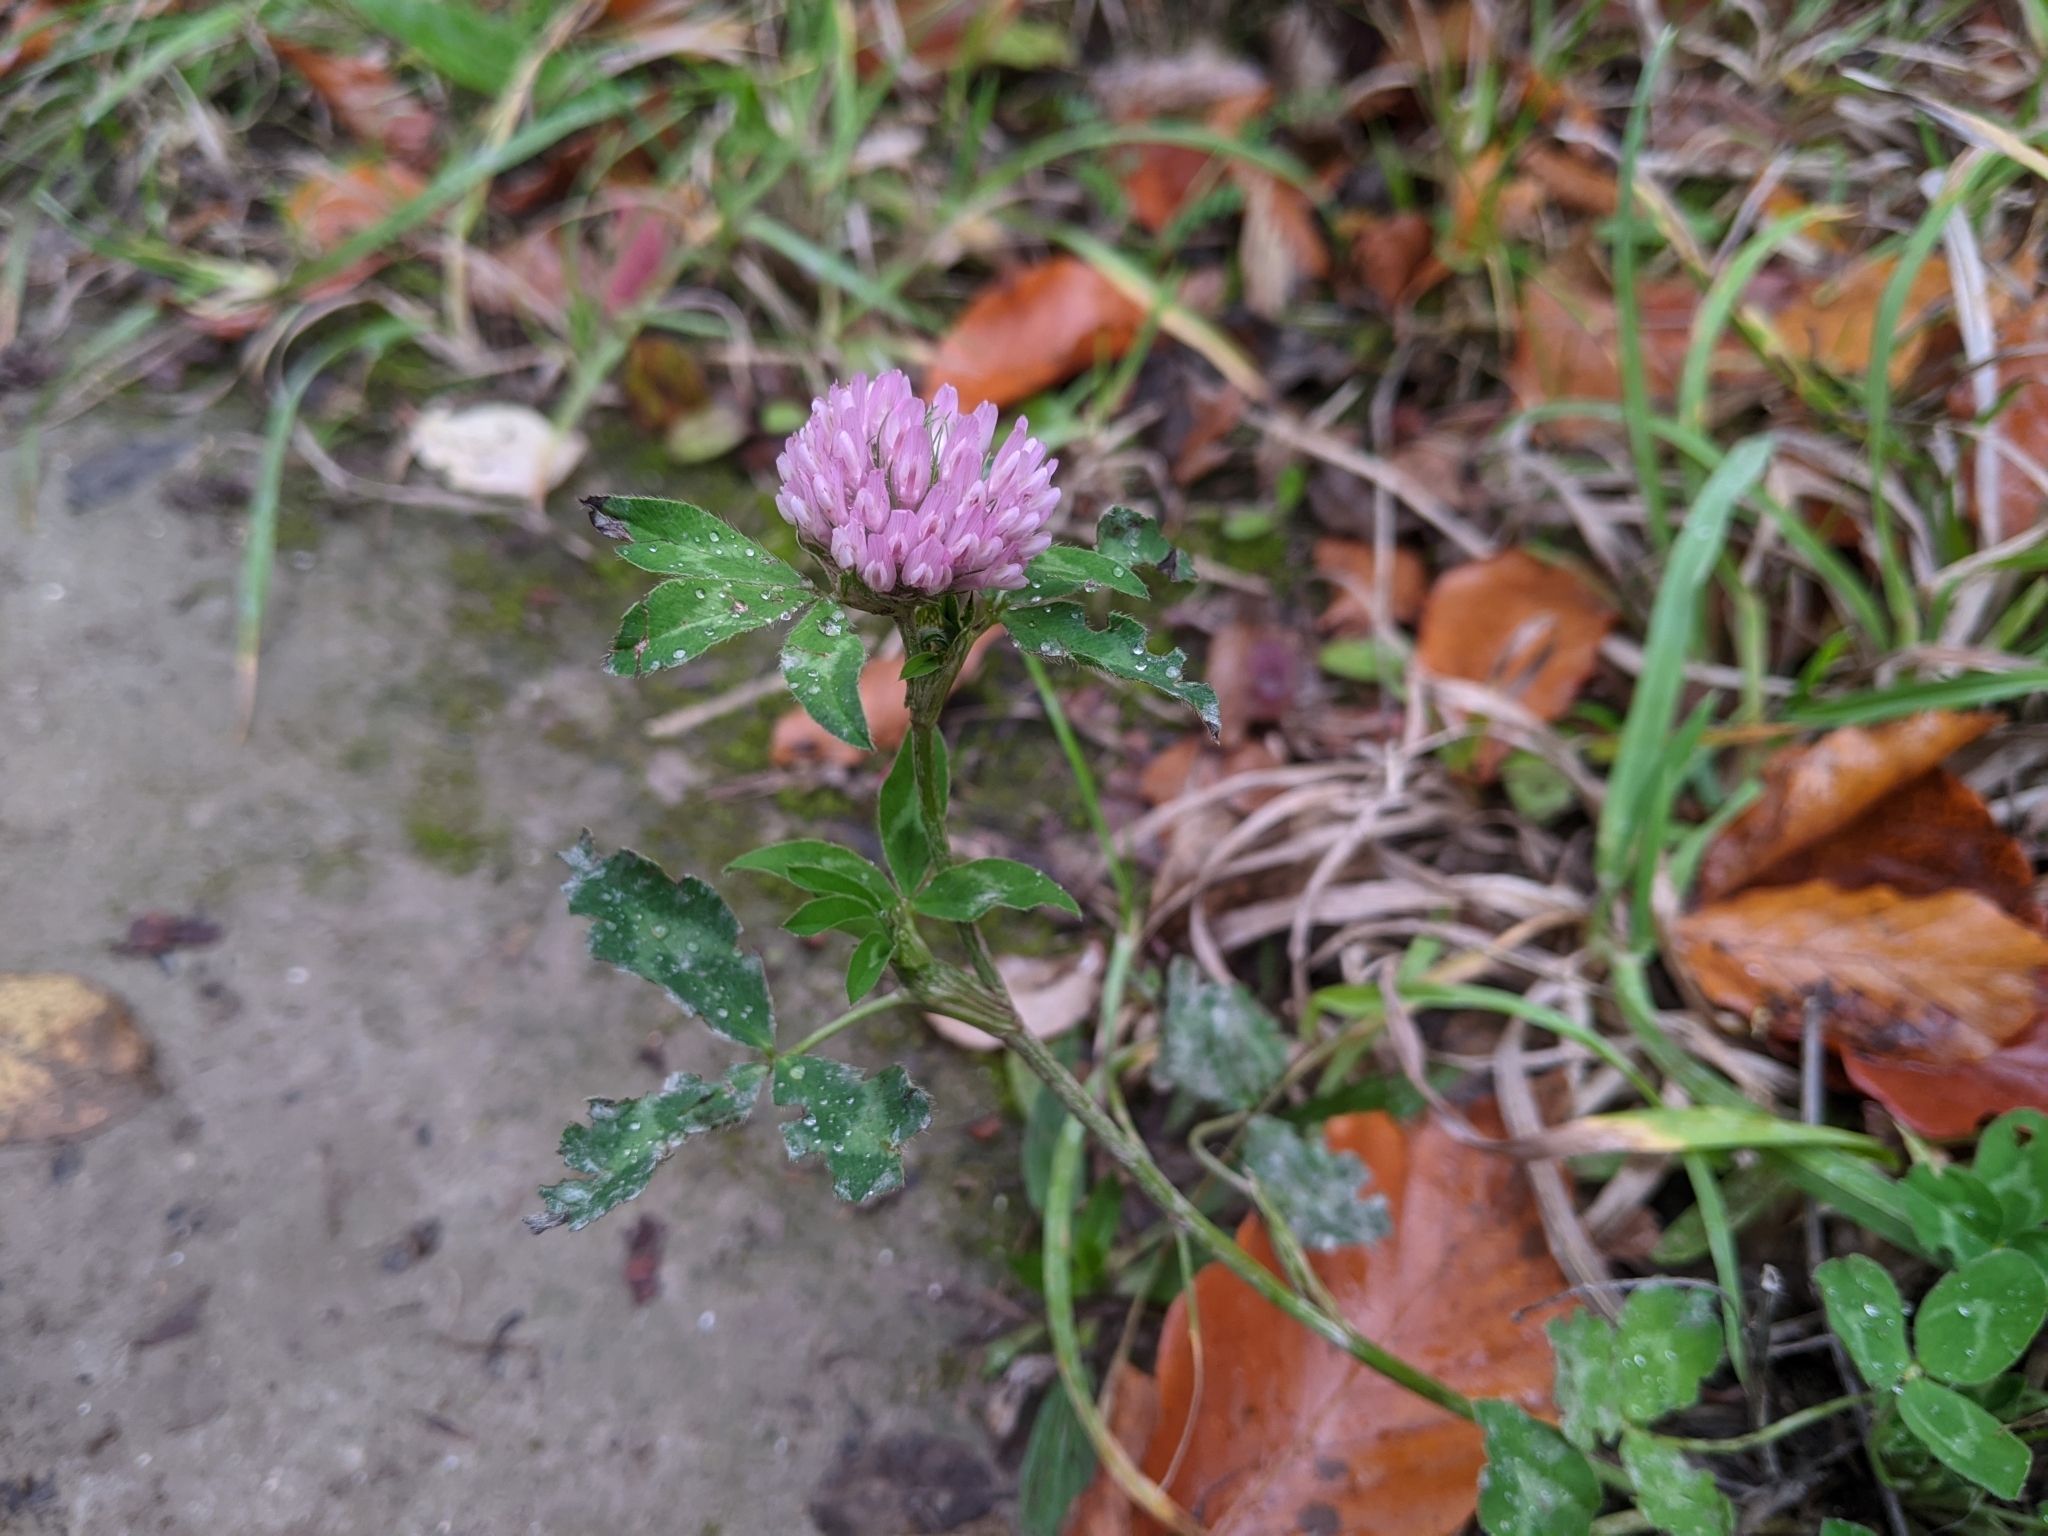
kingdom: Plantae
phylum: Tracheophyta
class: Magnoliopsida
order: Fabales
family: Fabaceae
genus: Trifolium
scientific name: Trifolium pratense
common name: Red clover
